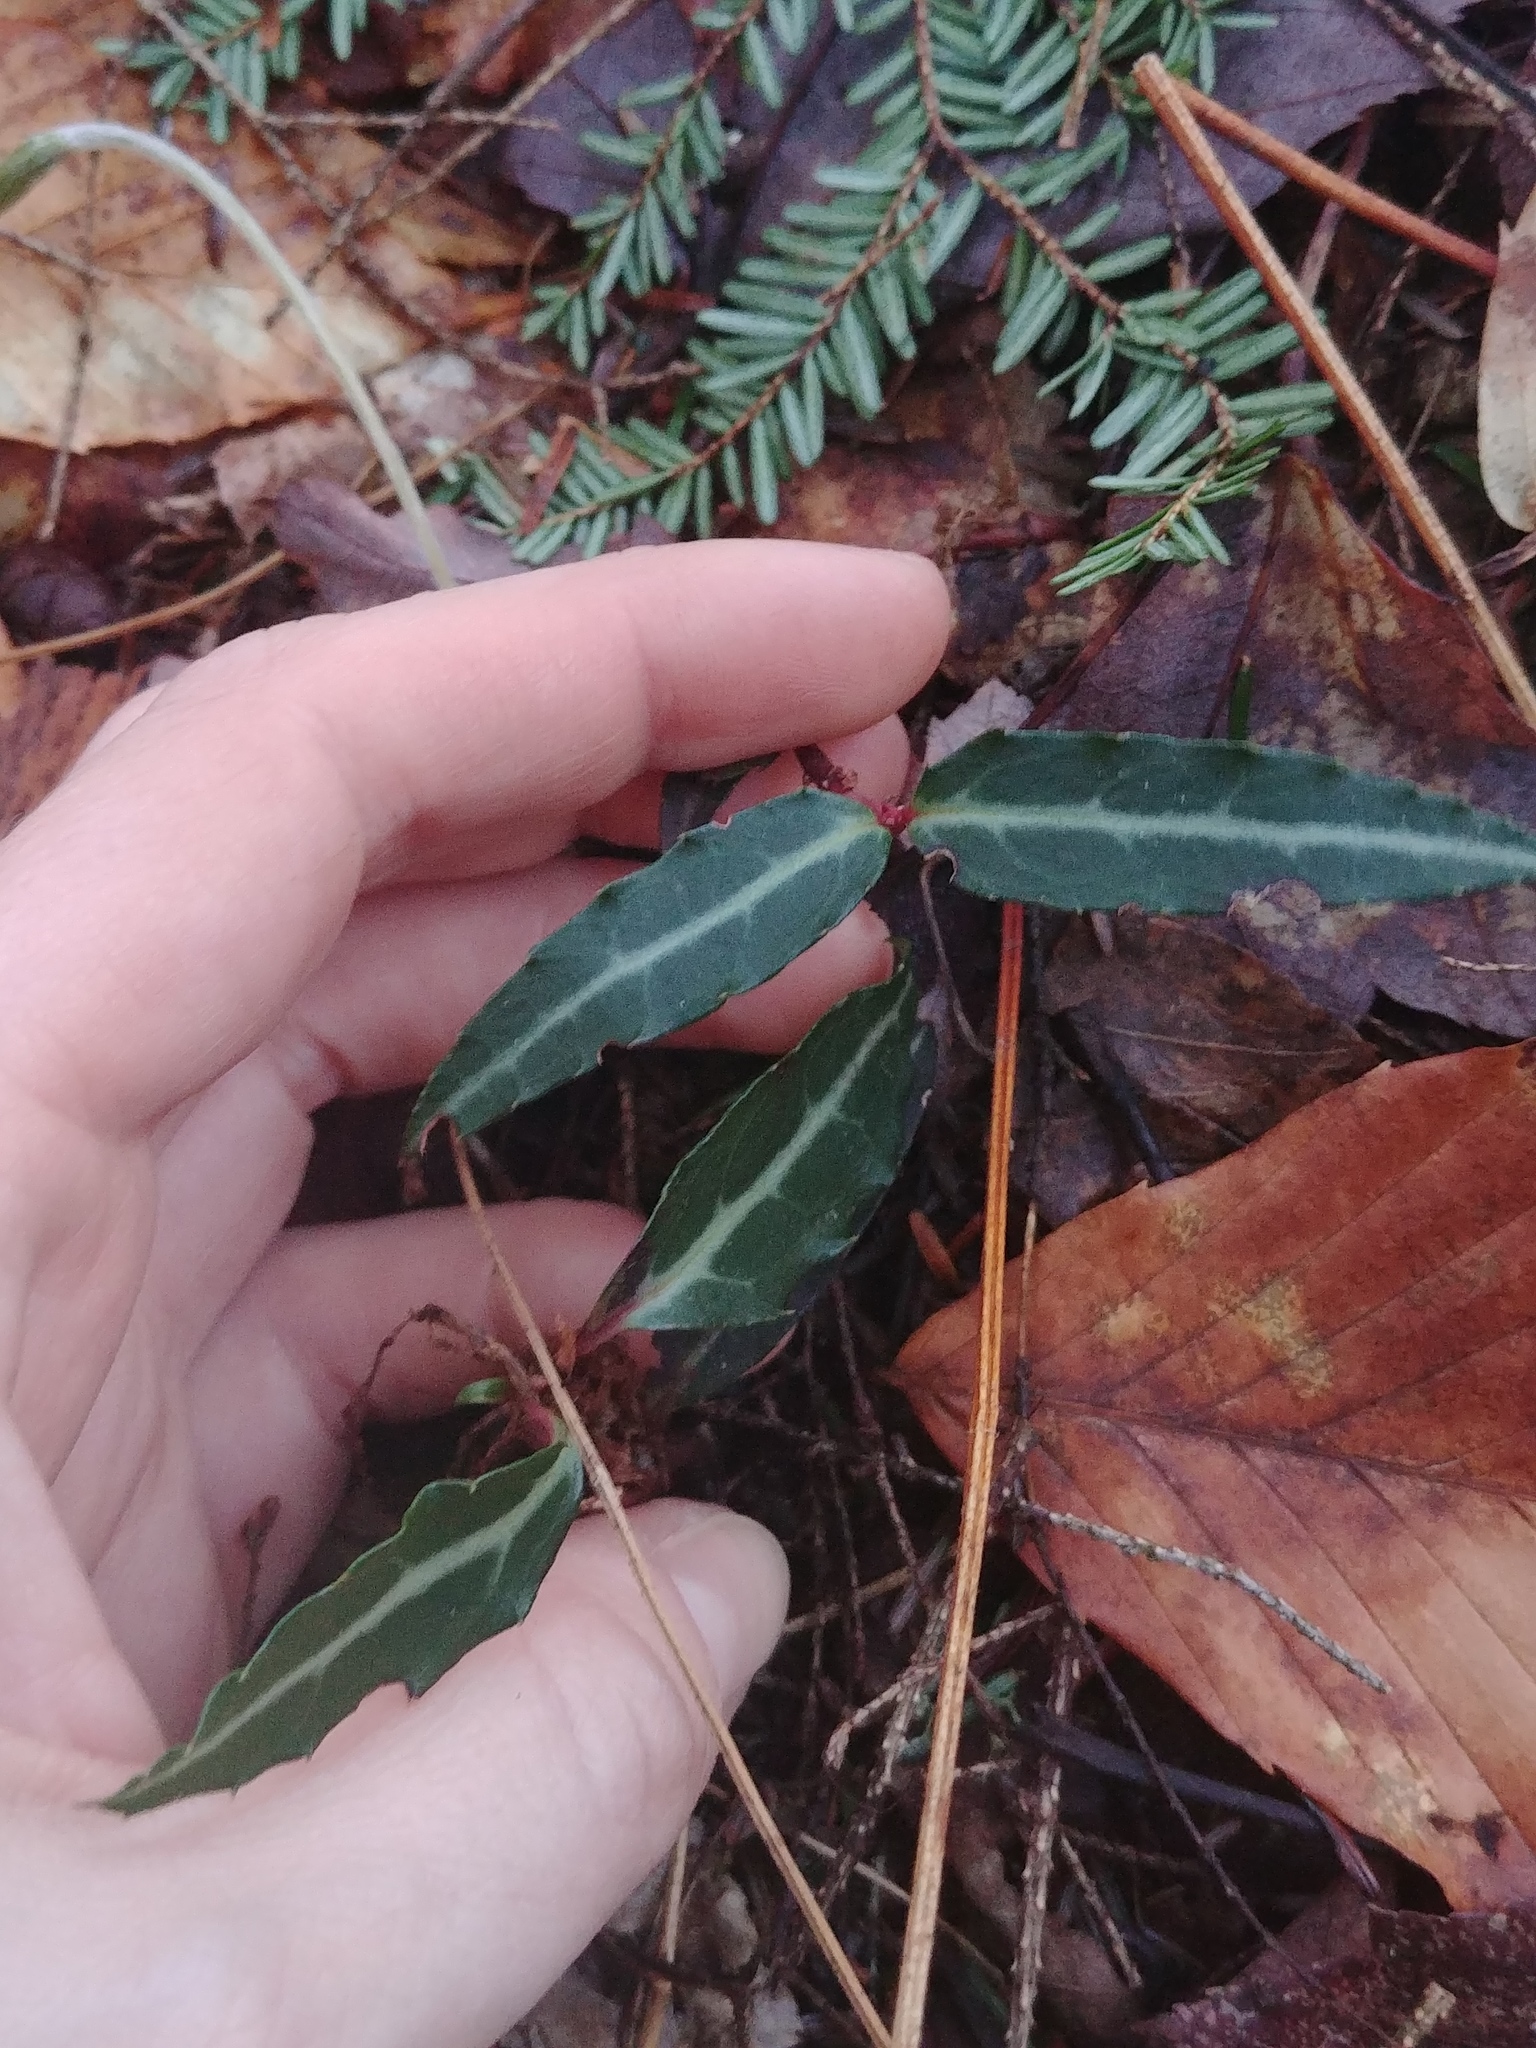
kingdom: Plantae
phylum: Tracheophyta
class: Magnoliopsida
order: Ericales
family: Ericaceae
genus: Chimaphila
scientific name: Chimaphila maculata
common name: Spotted pipsissewa
